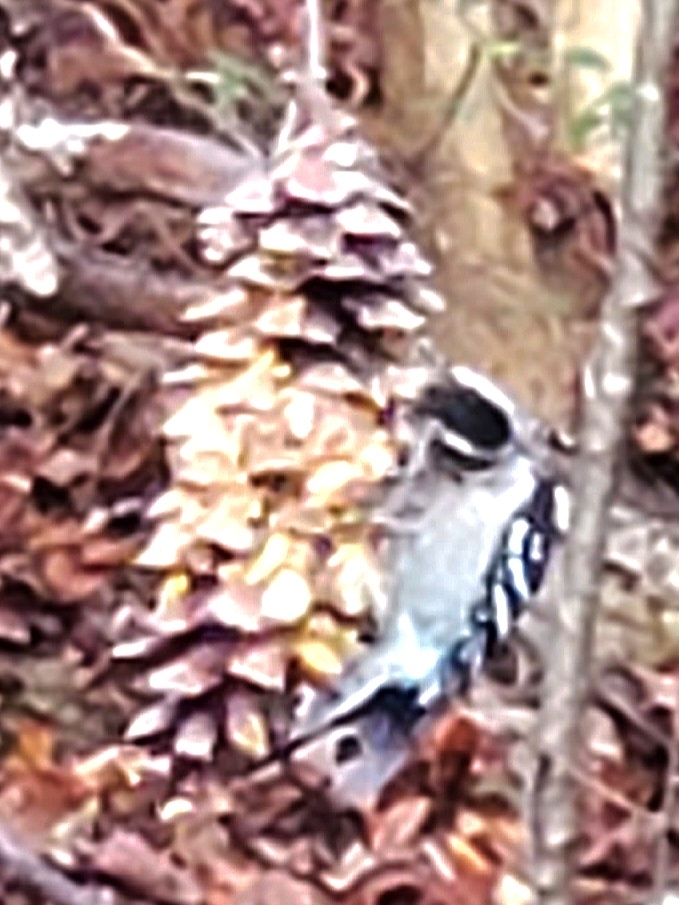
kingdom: Animalia
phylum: Chordata
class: Aves
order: Piciformes
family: Picidae
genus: Dryobates
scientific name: Dryobates pubescens
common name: Downy woodpecker
